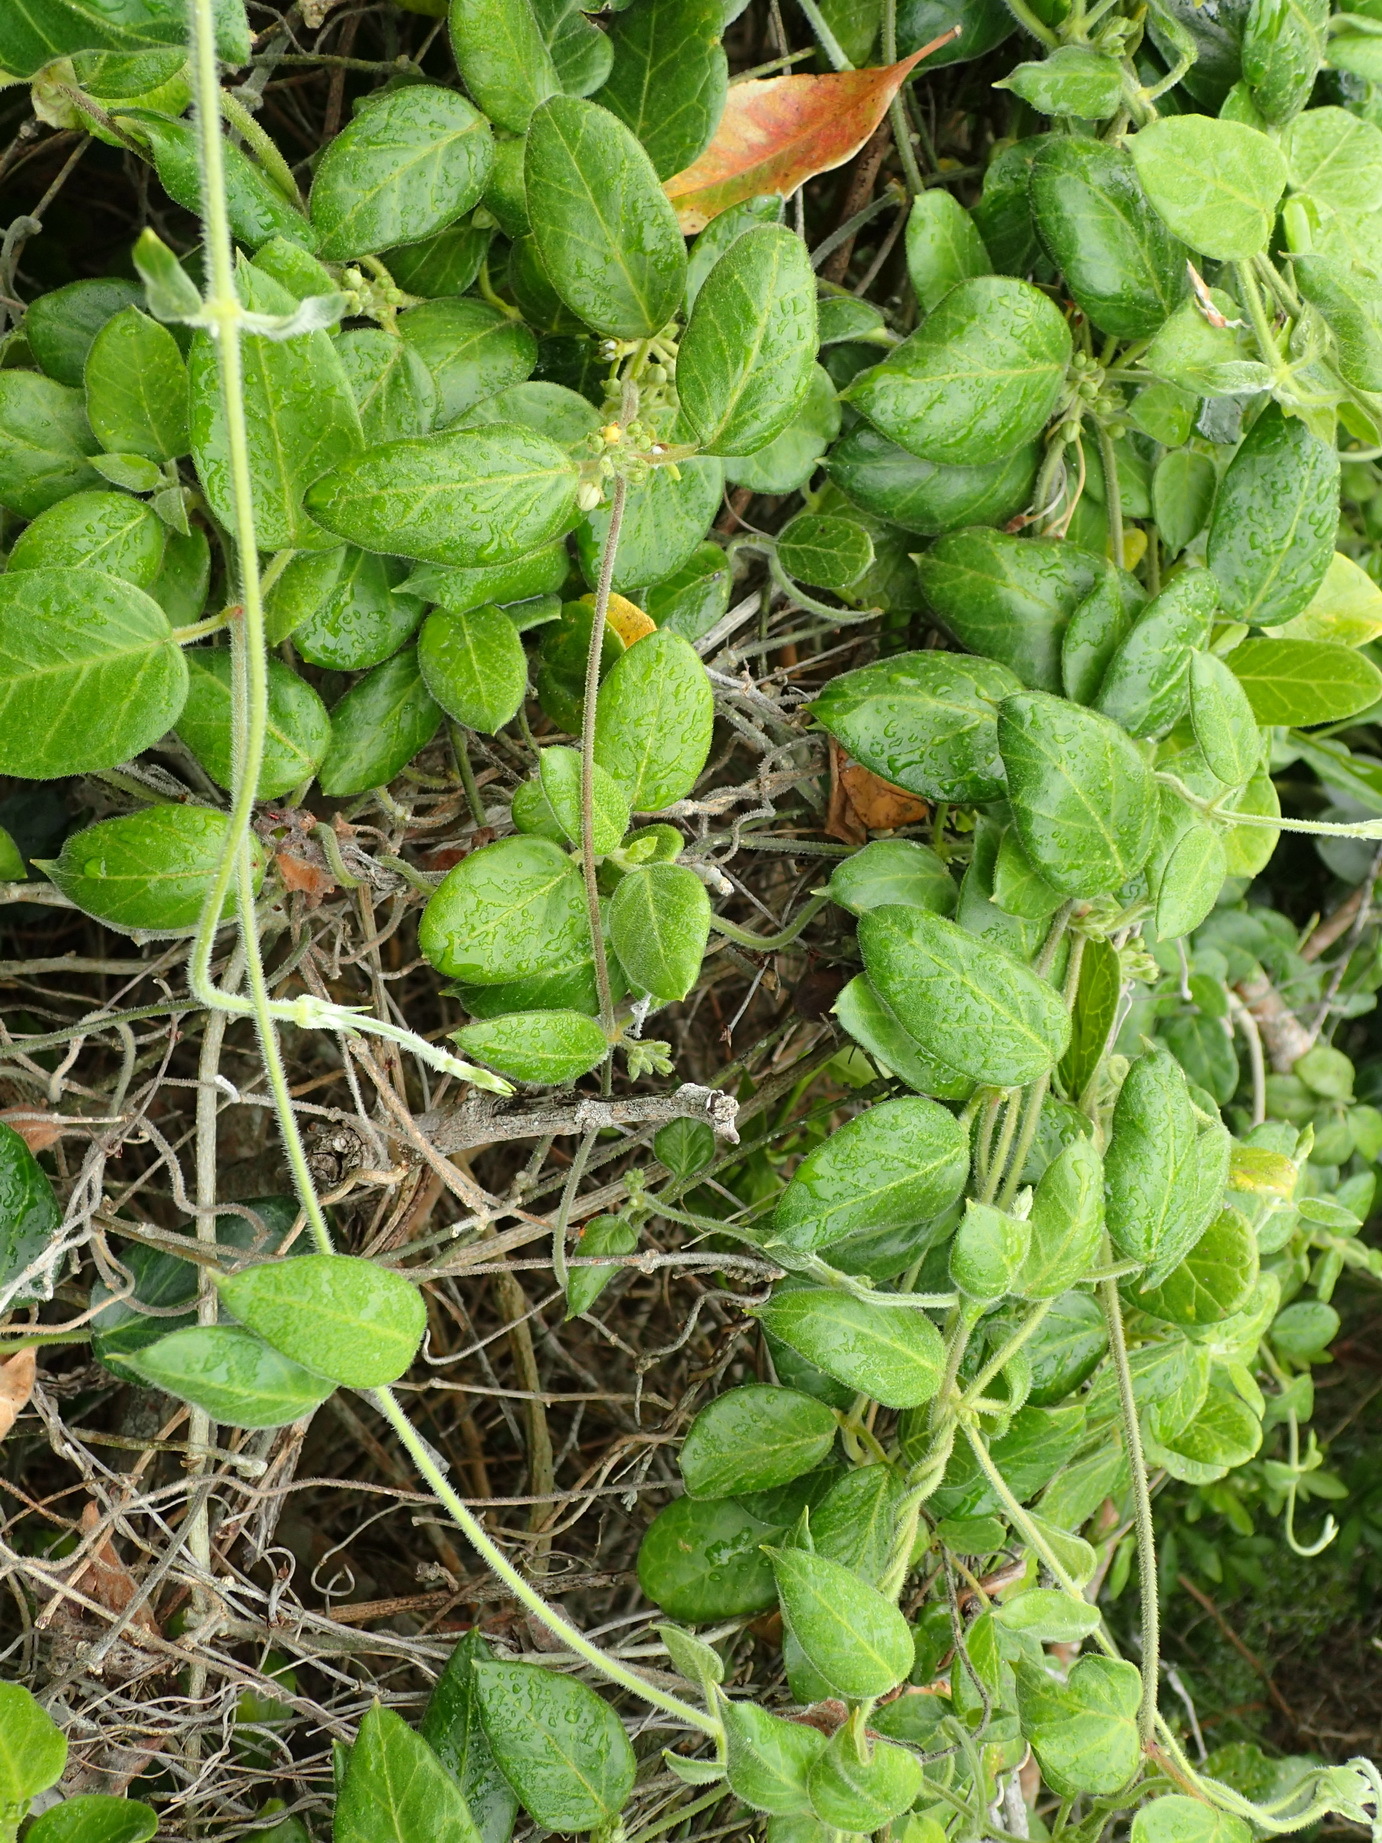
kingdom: Plantae
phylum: Tracheophyta
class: Magnoliopsida
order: Gentianales
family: Apocynaceae
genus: Cynanchum
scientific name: Cynanchum obtusifolium
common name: Monkey-rope
